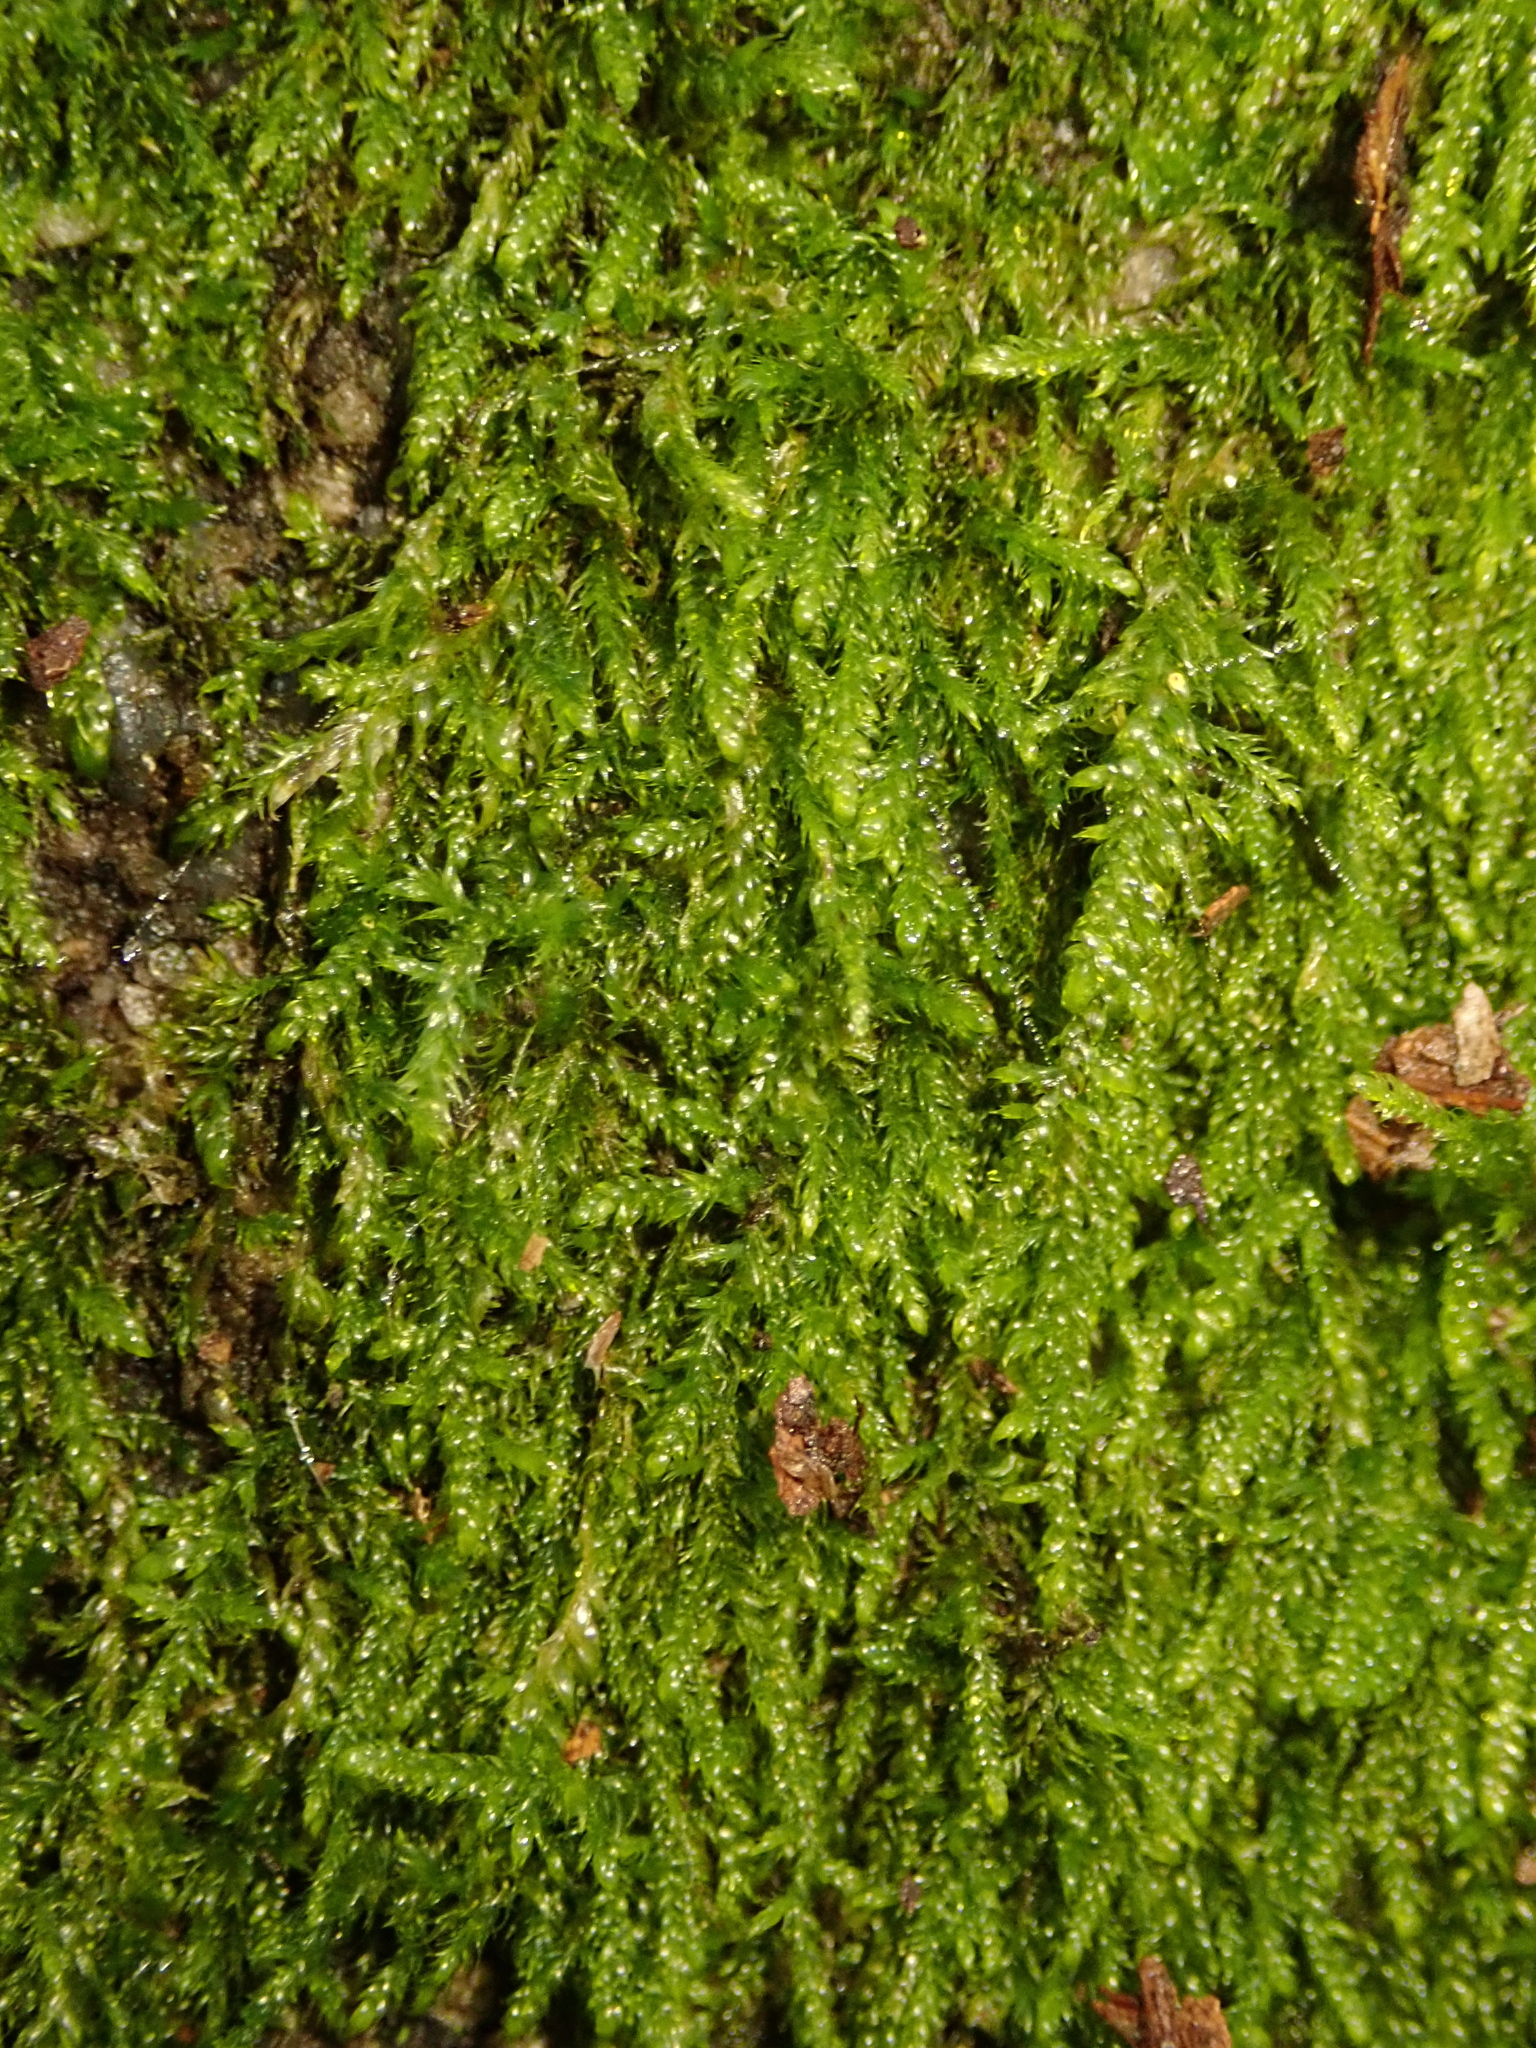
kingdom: Plantae
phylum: Bryophyta
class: Bryopsida
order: Hypnales
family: Hypnaceae
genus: Hypnum
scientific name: Hypnum cupressiforme
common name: Cypress-leaved plait-moss
